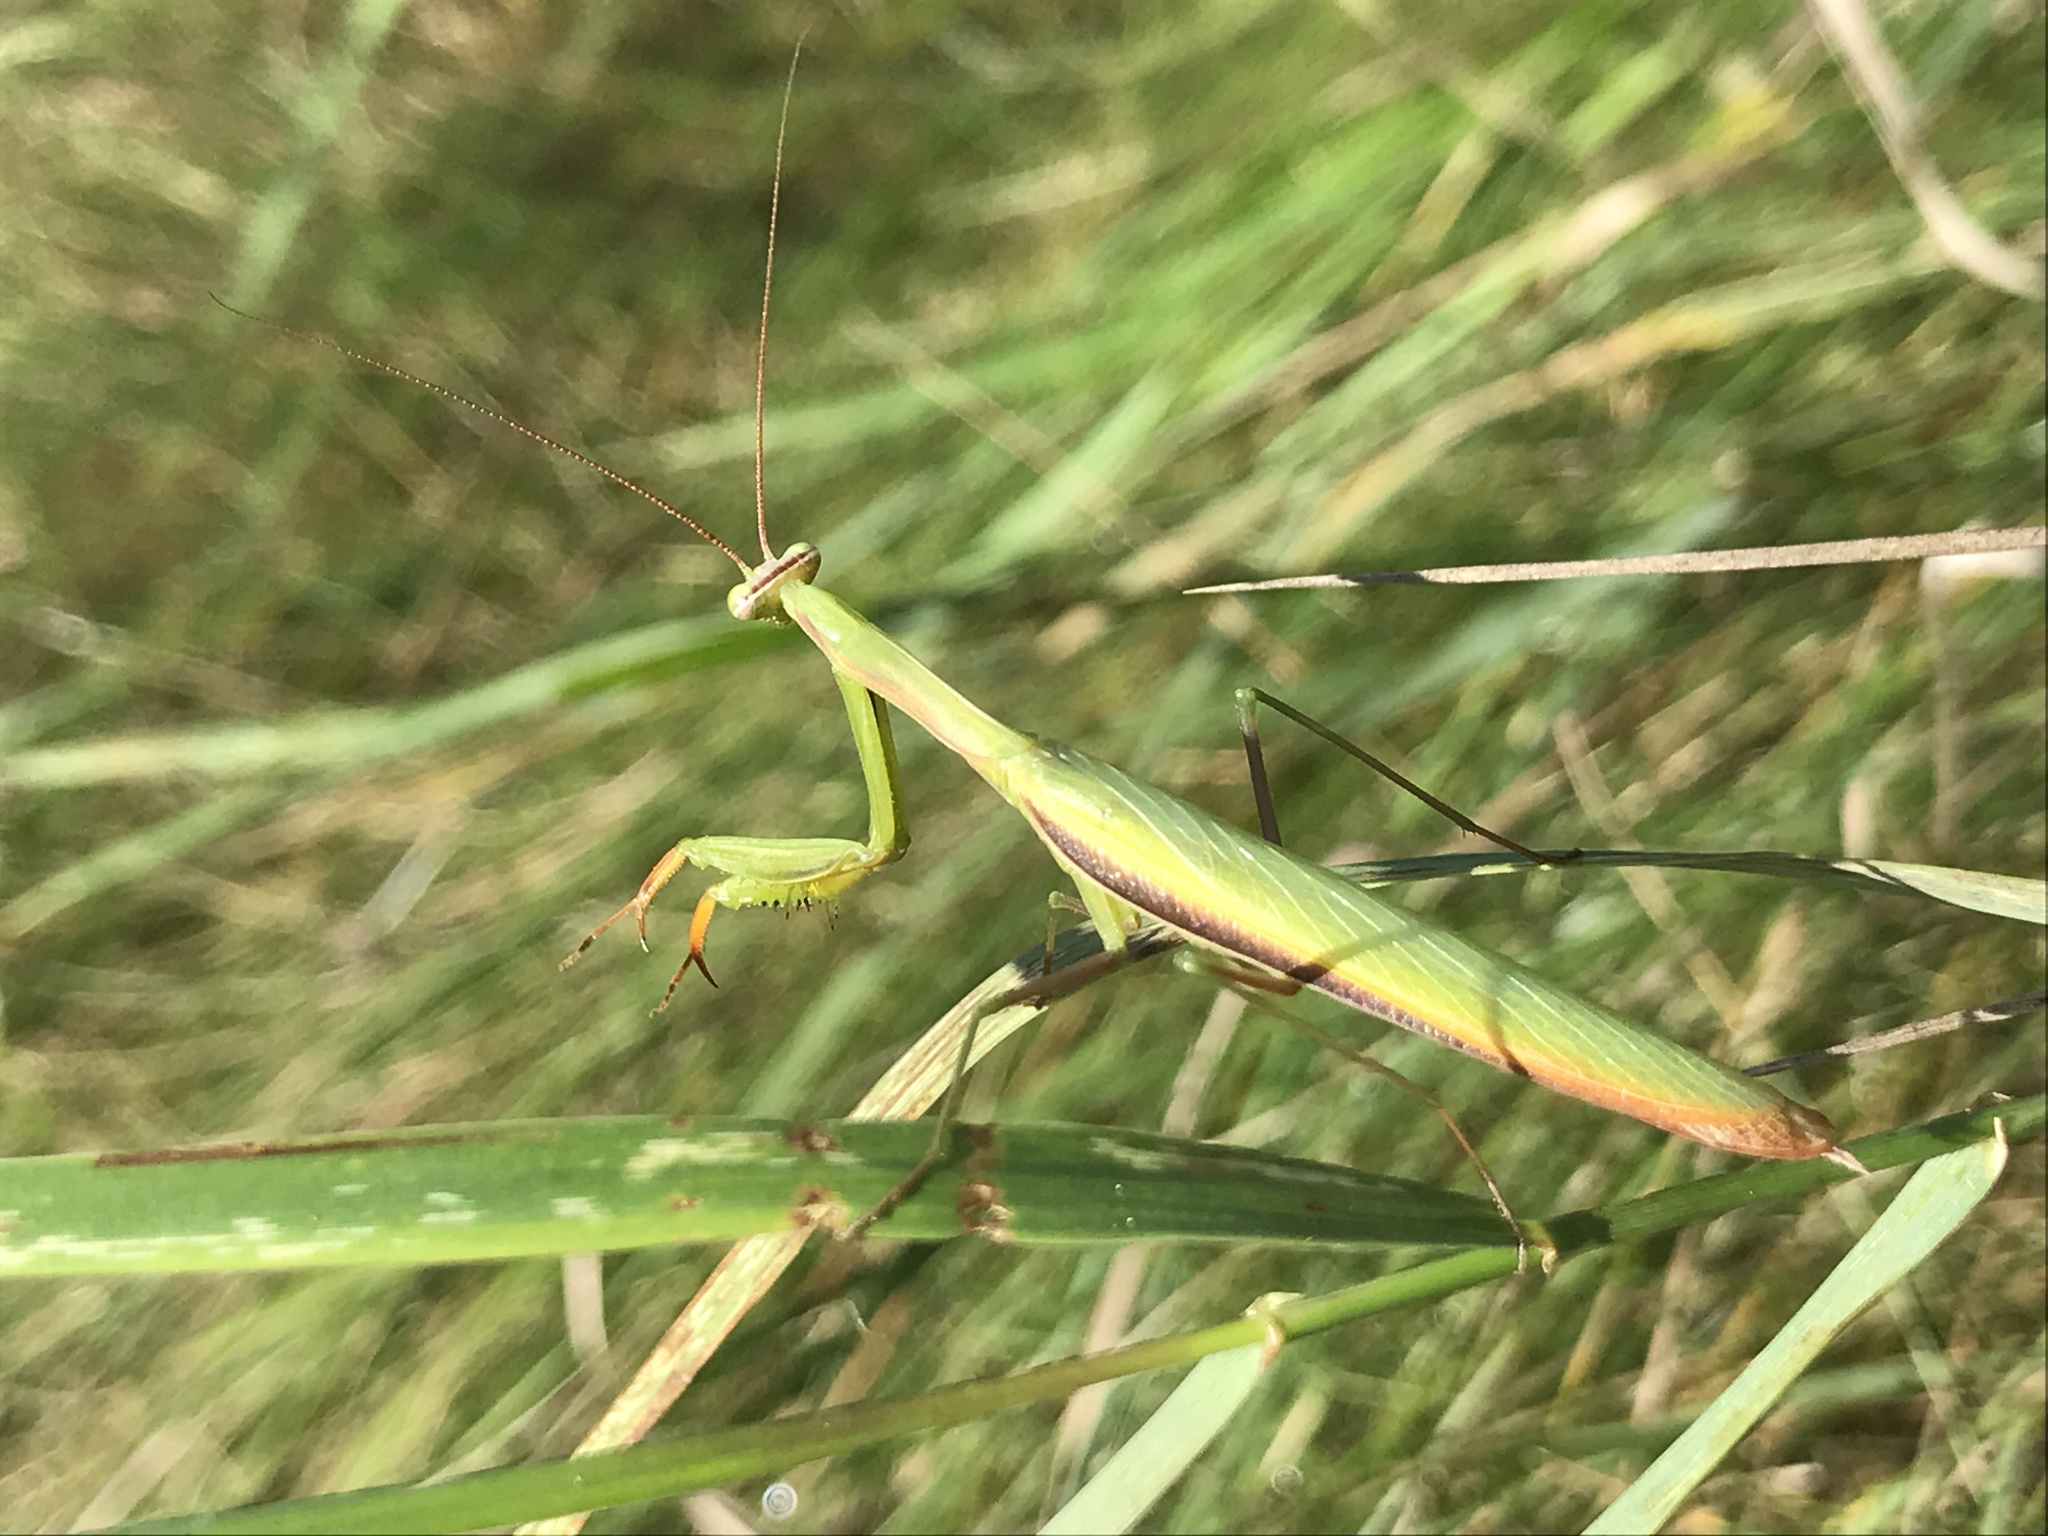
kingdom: Animalia
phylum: Arthropoda
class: Insecta
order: Mantodea
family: Mantidae
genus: Mantis
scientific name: Mantis religiosa
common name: Praying mantis
